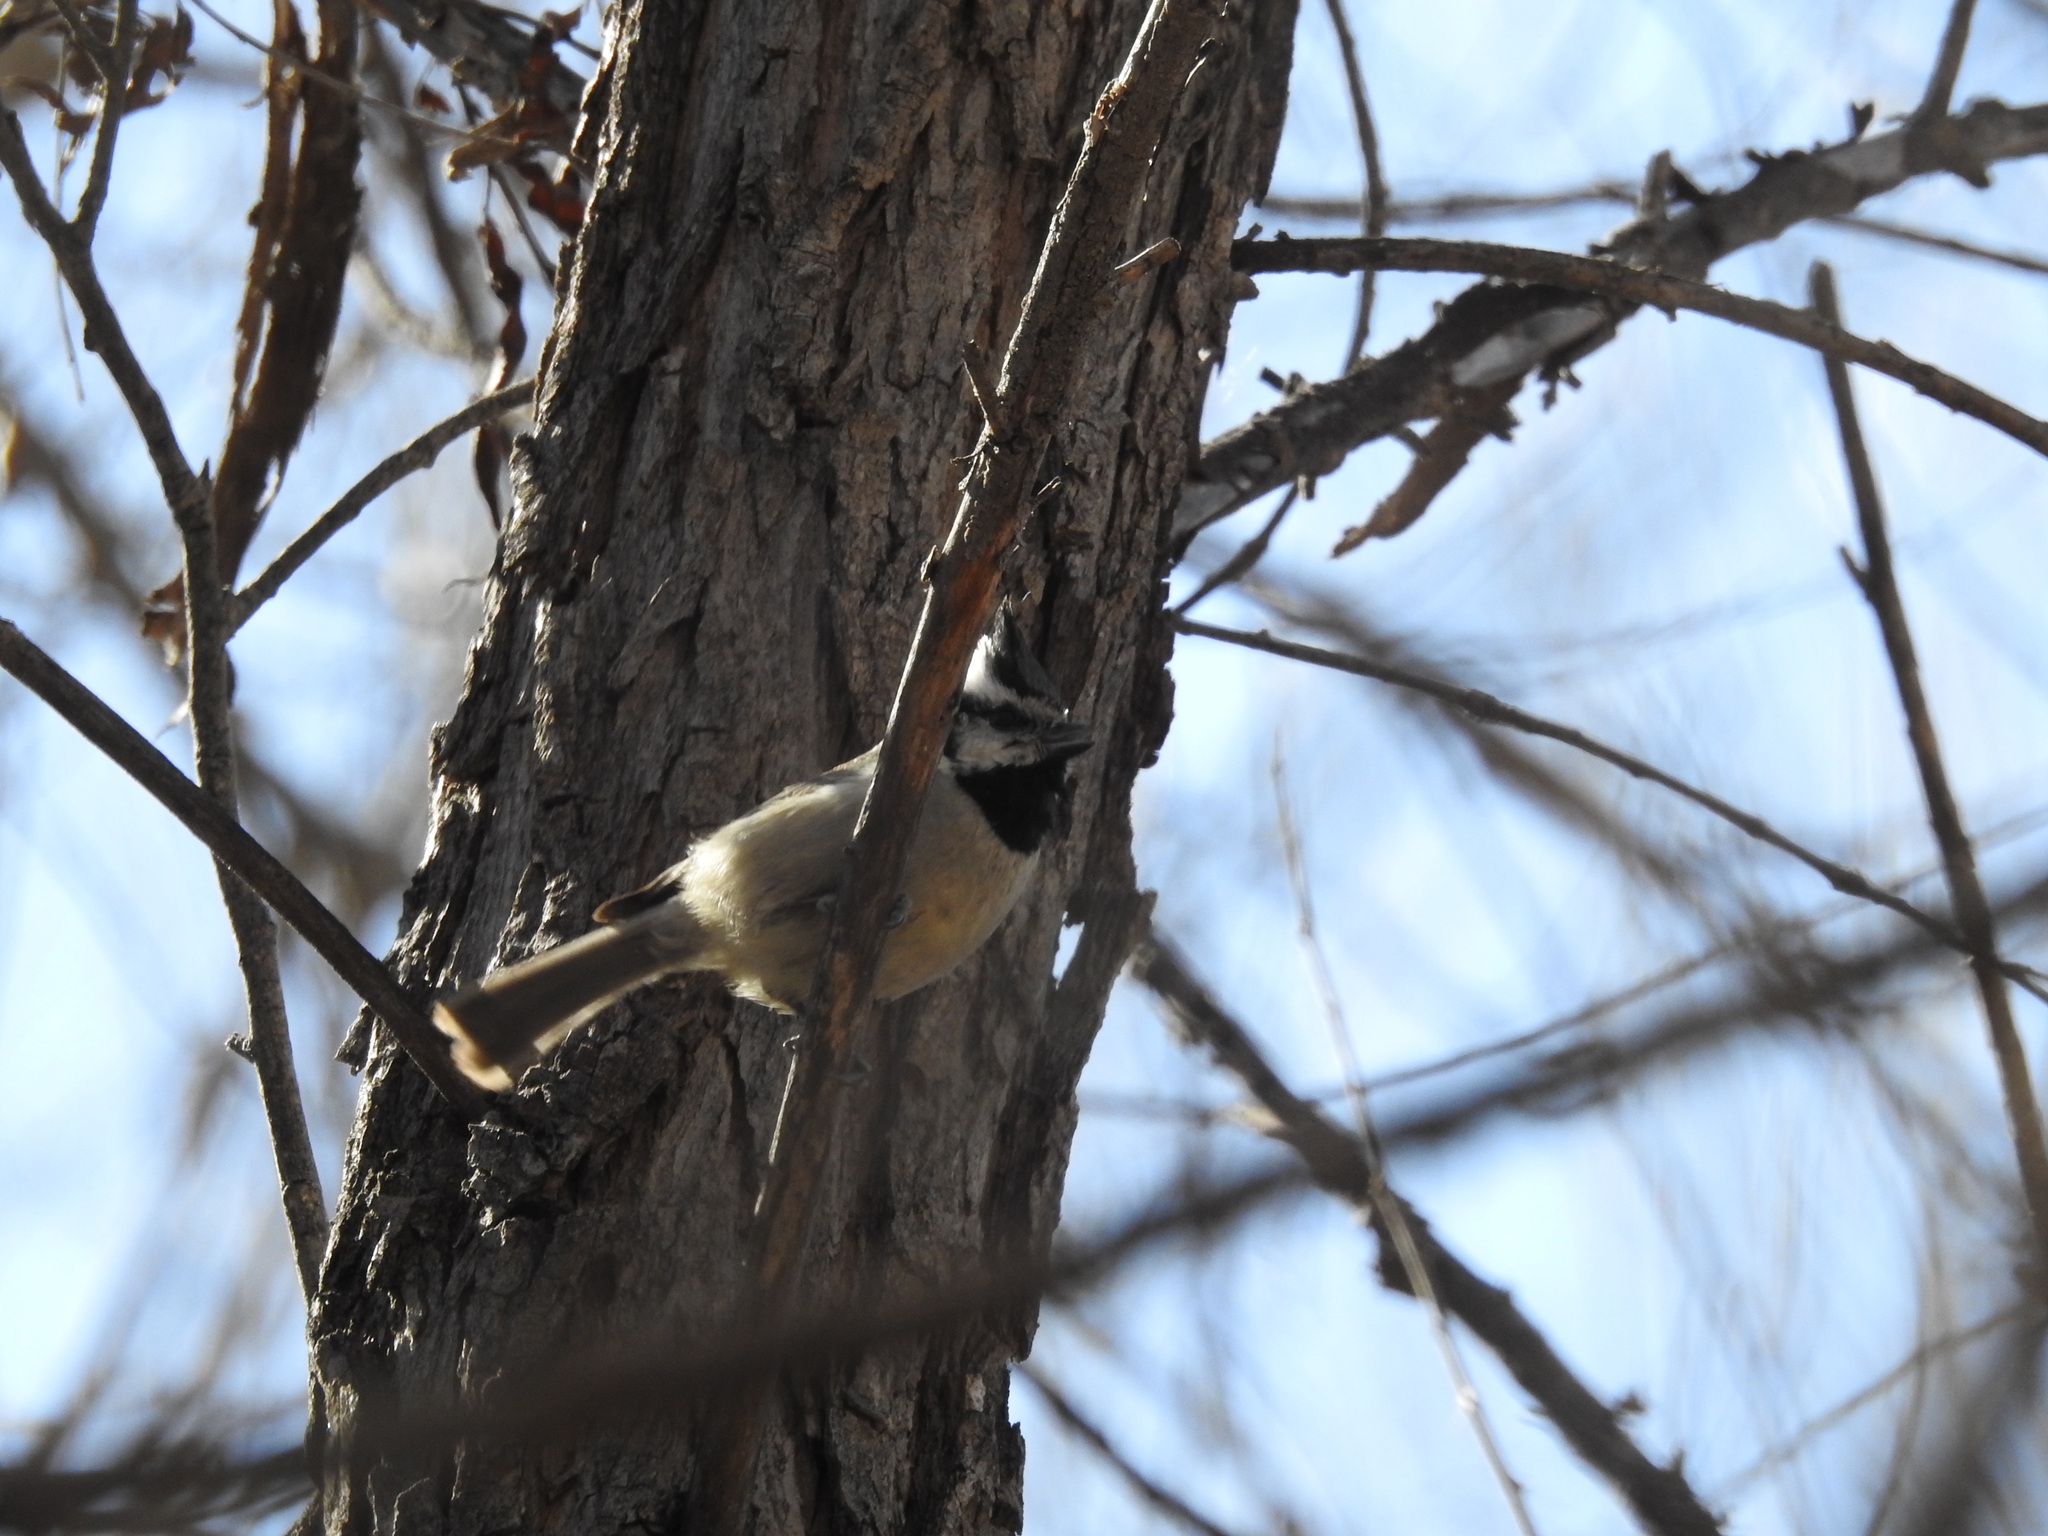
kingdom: Animalia
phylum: Chordata
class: Aves
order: Passeriformes
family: Paridae
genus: Baeolophus
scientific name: Baeolophus wollweberi
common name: Bridled titmouse
